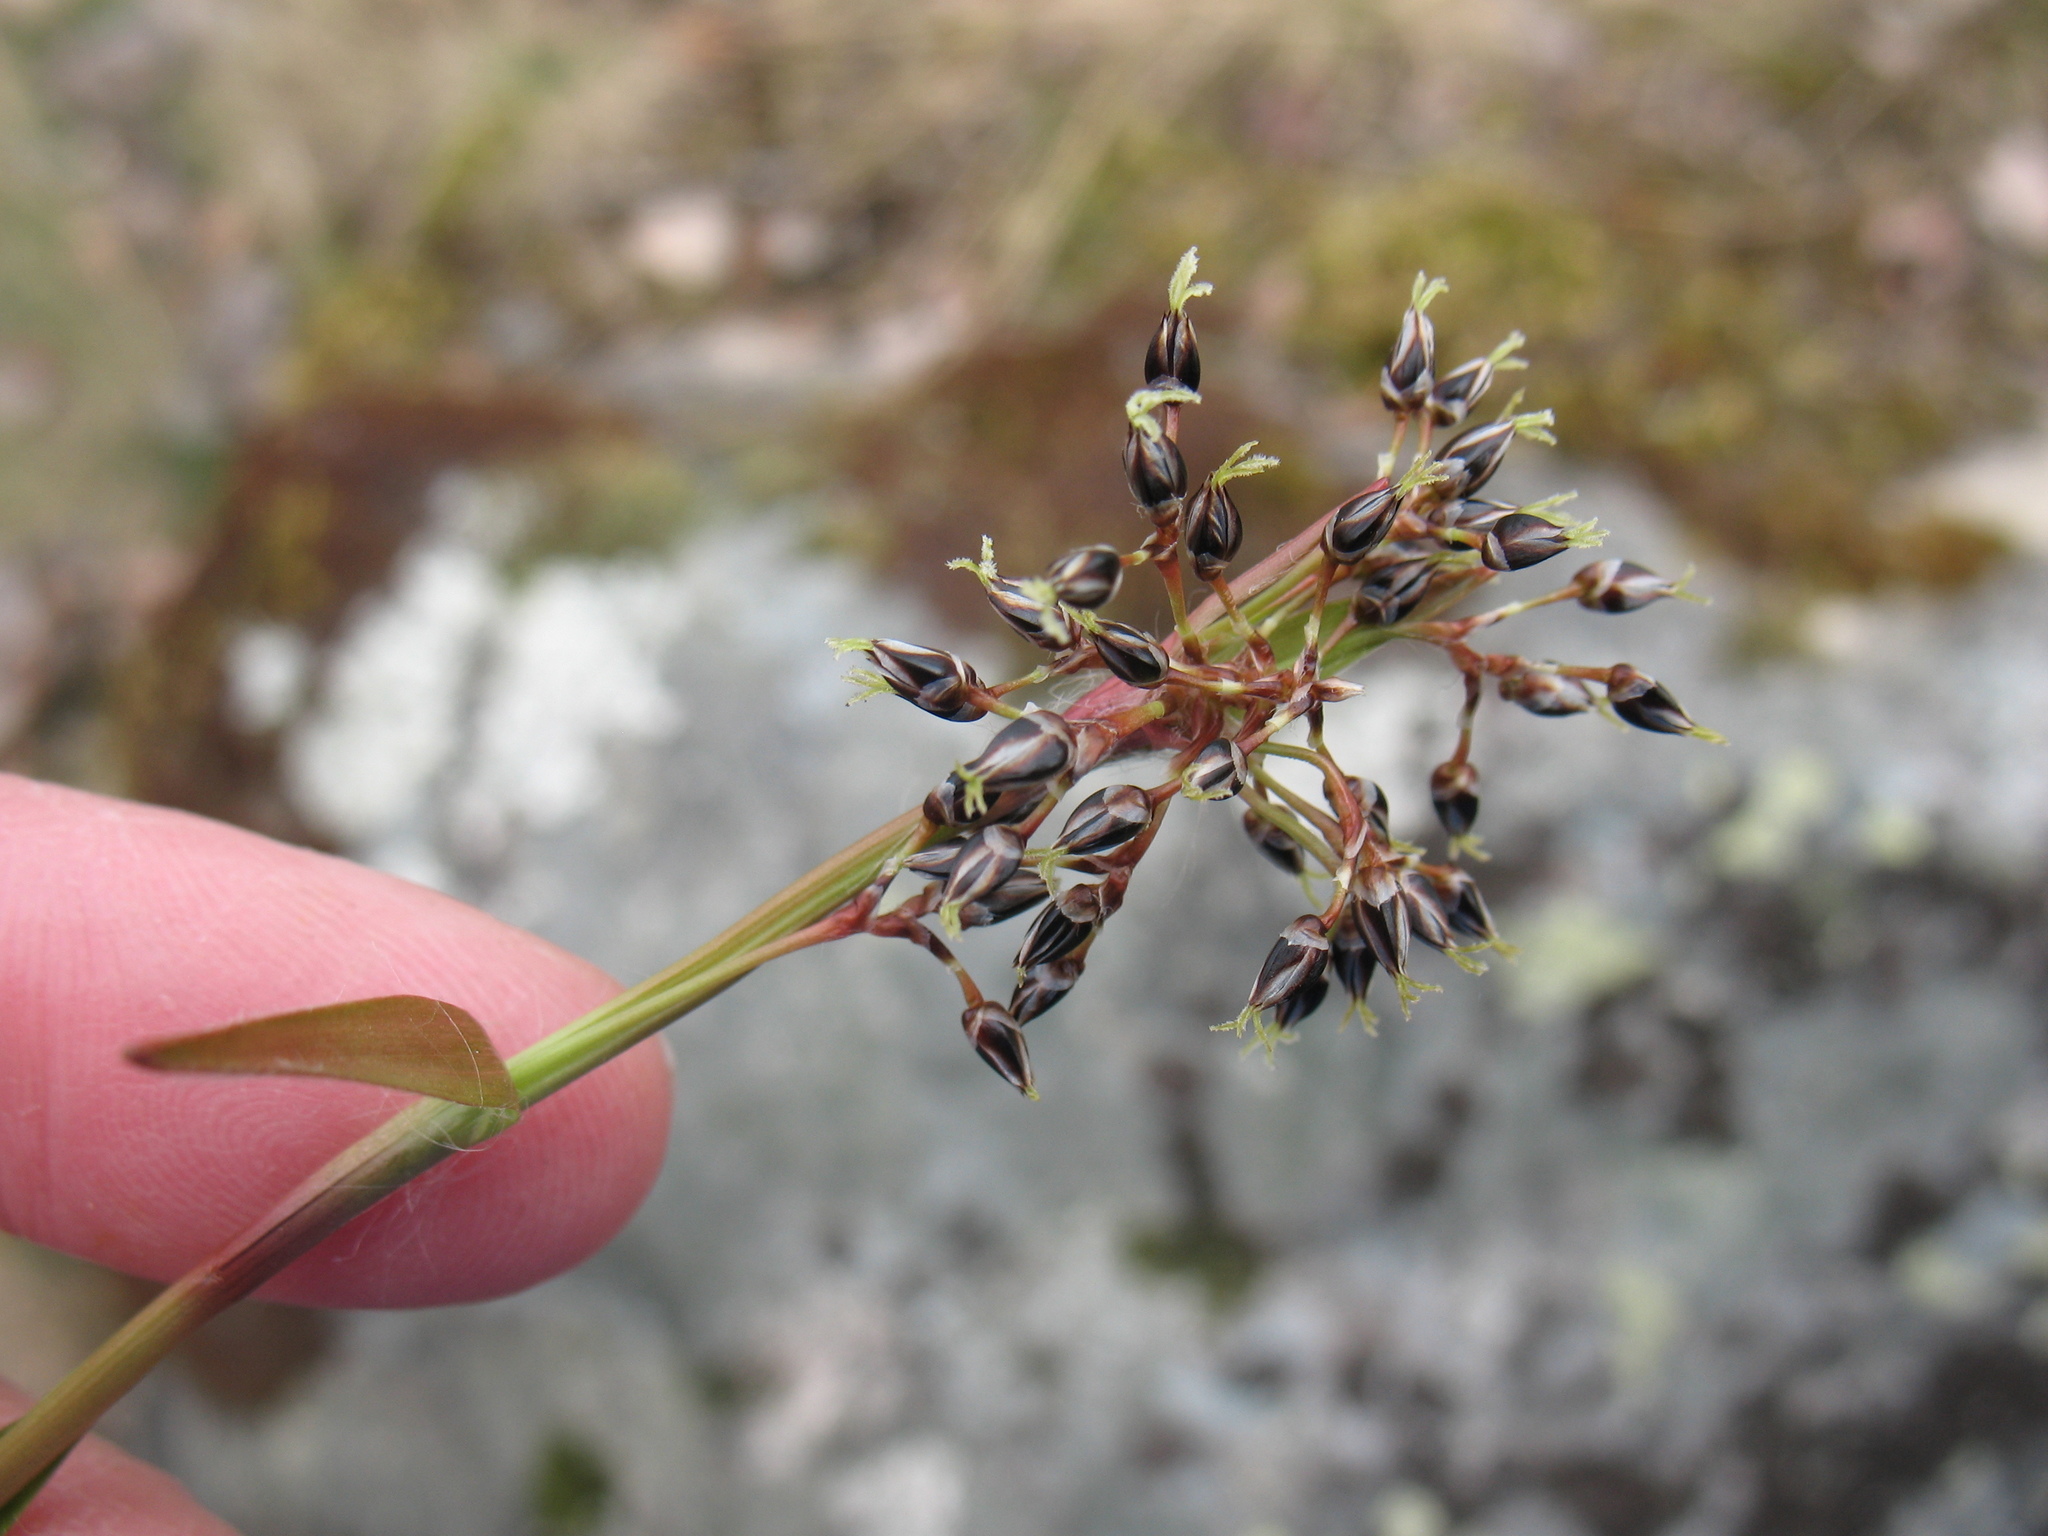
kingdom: Plantae
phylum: Tracheophyta
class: Liliopsida
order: Poales
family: Juncaceae
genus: Luzula
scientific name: Luzula pilosa
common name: Hairy wood-rush
